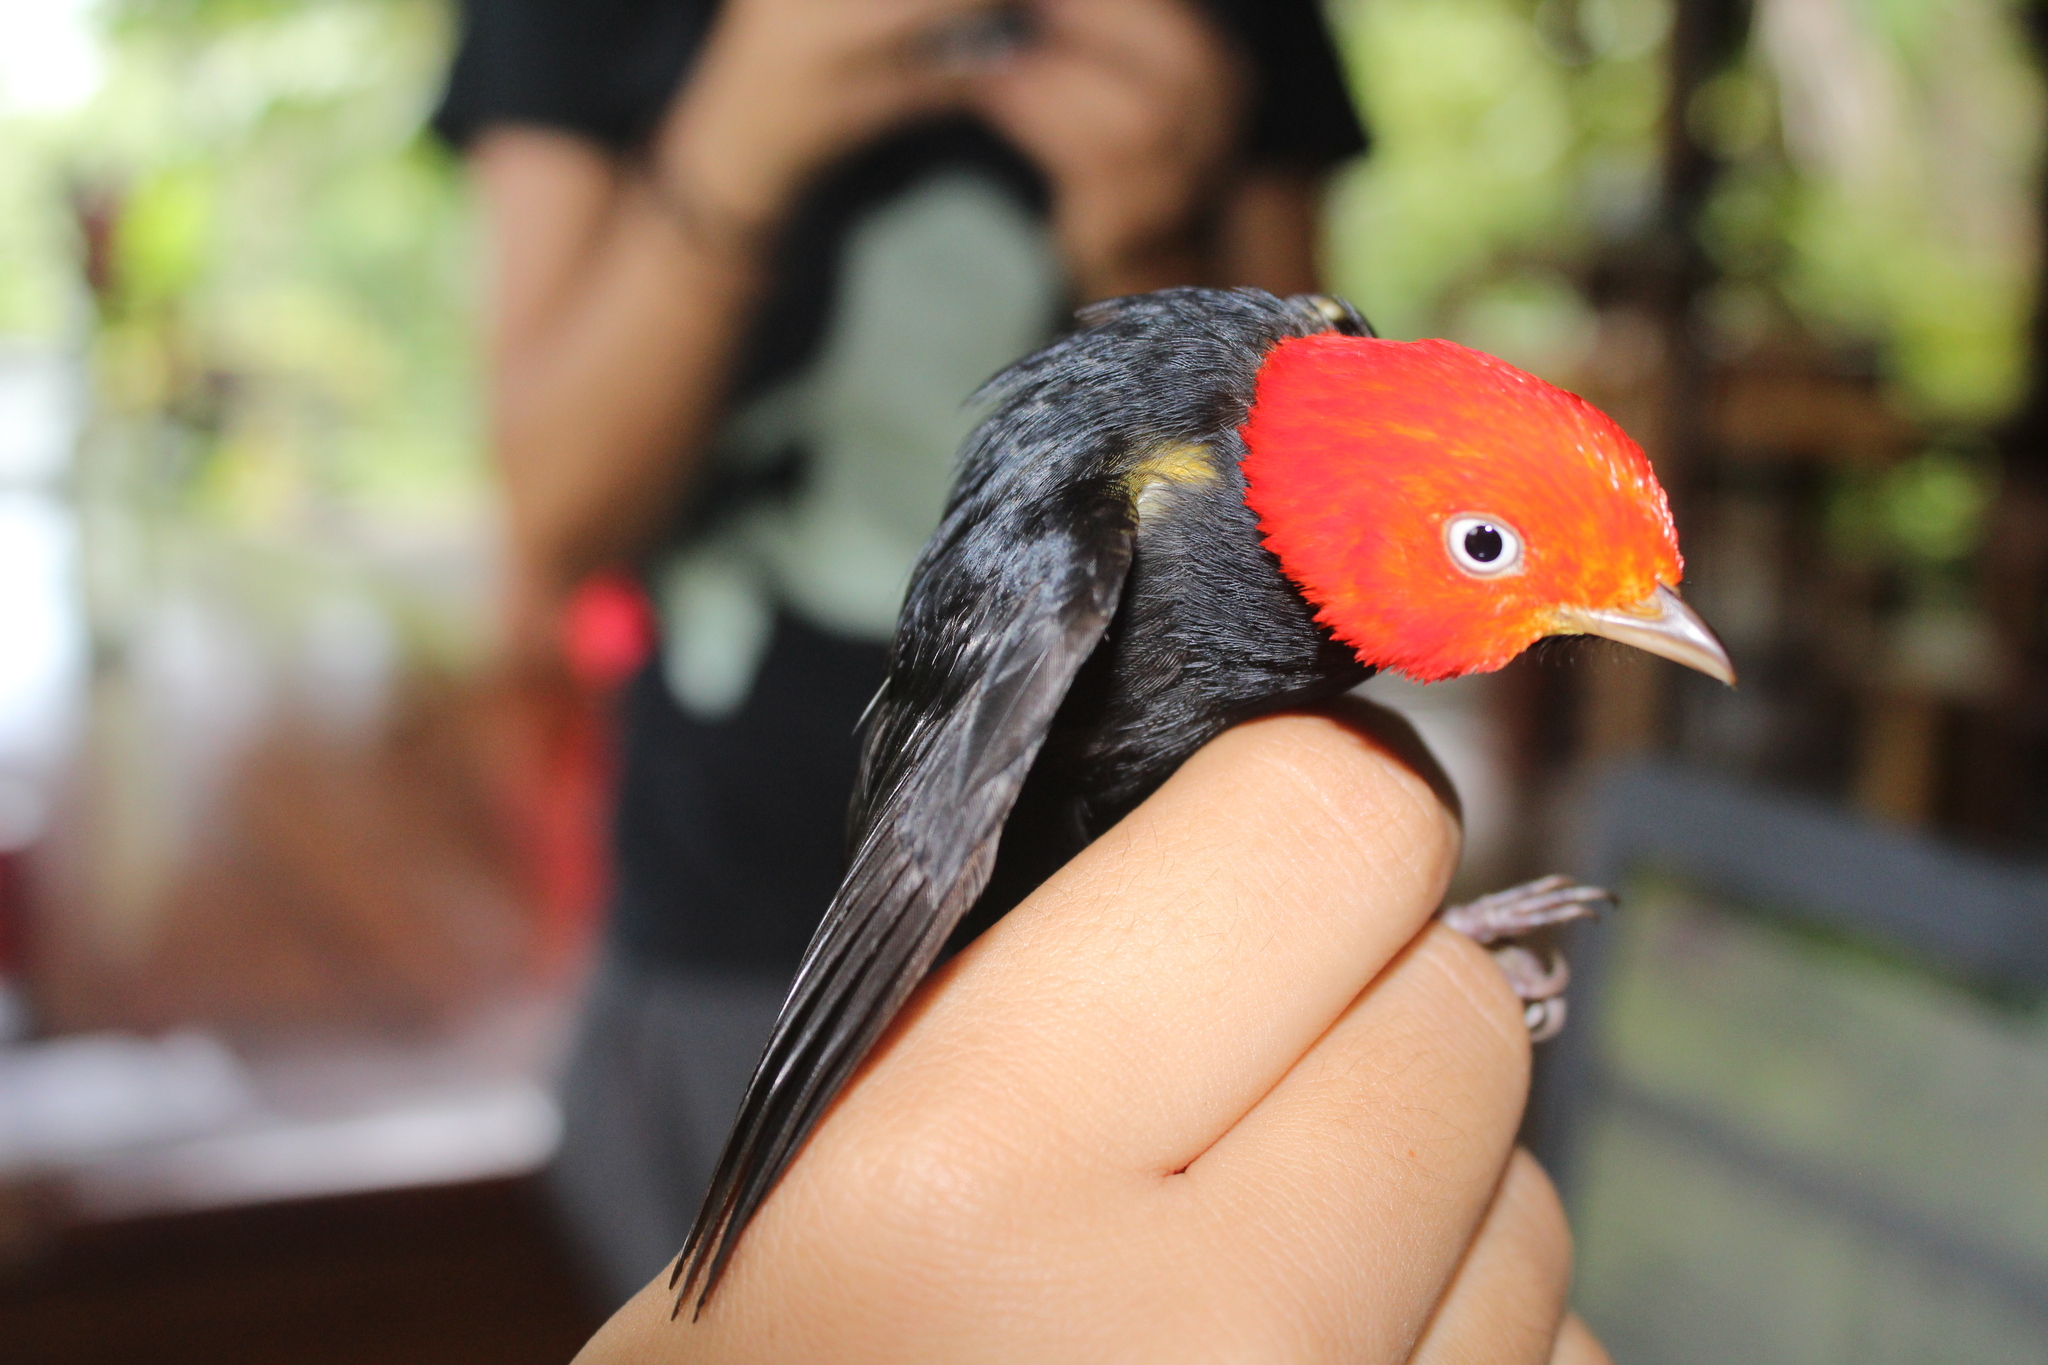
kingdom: Animalia
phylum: Chordata
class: Aves
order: Passeriformes
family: Pipridae
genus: Pipra
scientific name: Pipra mentalis
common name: Red-capped manakin
